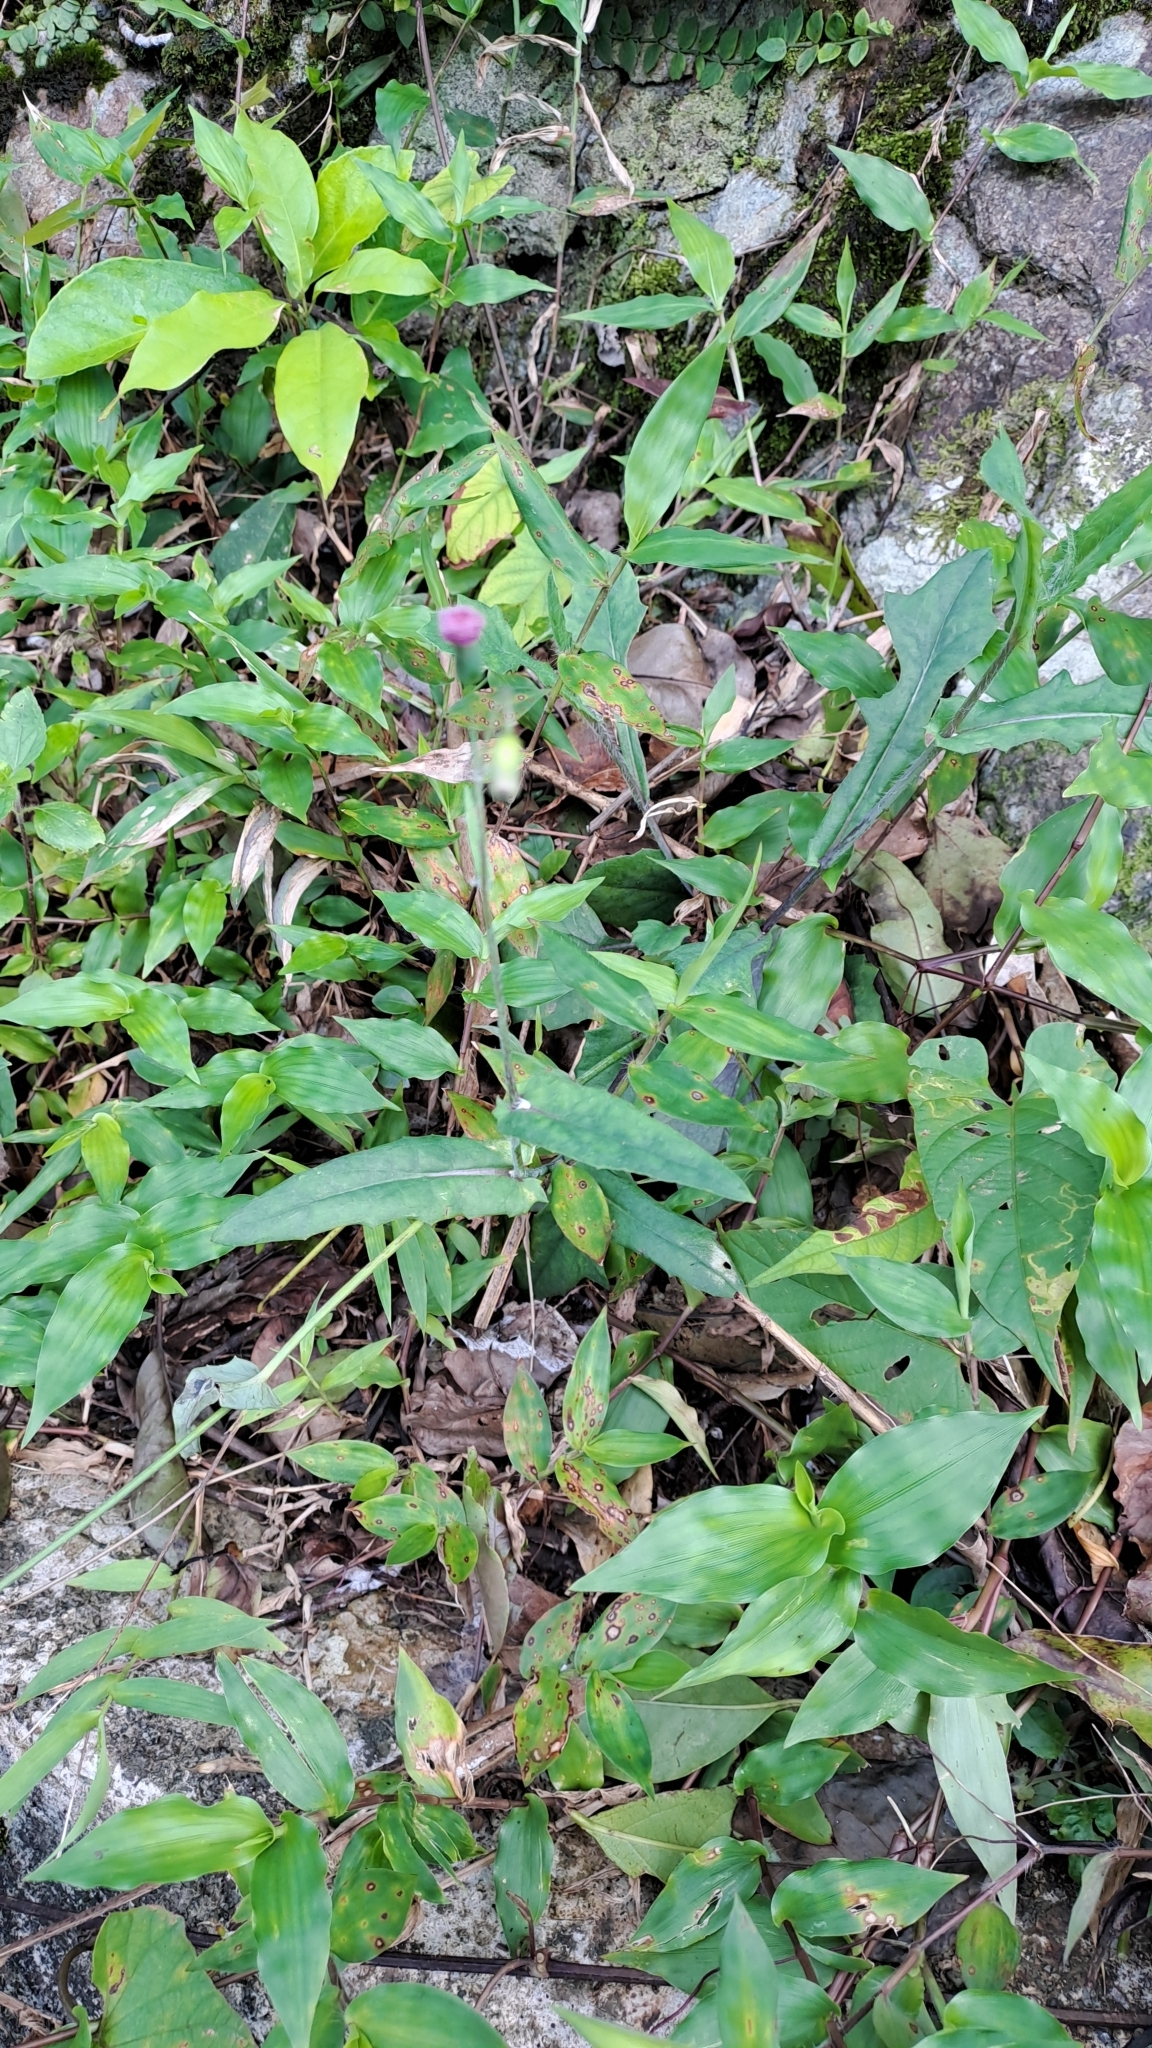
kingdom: Plantae
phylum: Tracheophyta
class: Magnoliopsida
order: Asterales
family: Asteraceae
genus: Emilia
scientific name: Emilia sonchifolia
